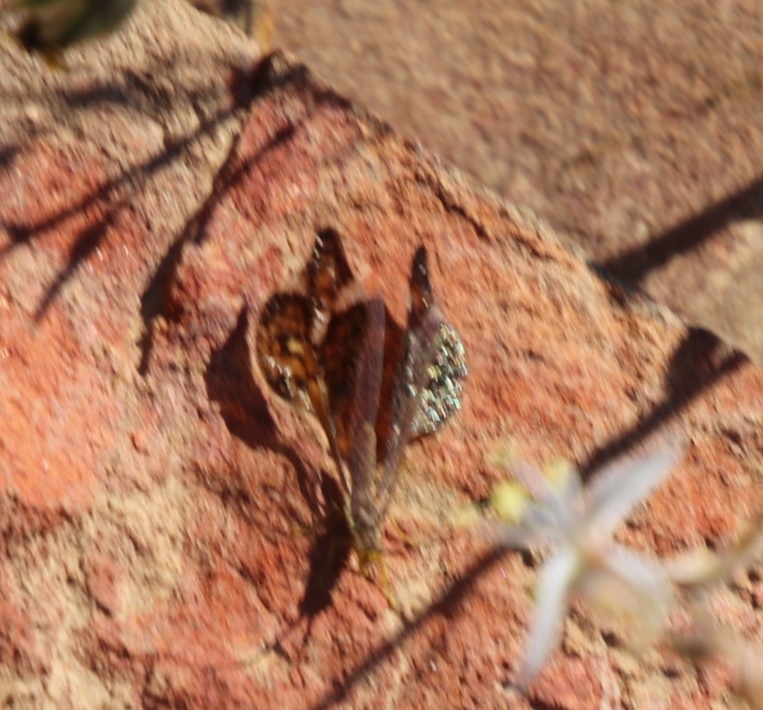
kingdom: Animalia
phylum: Arthropoda
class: Insecta
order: Neuroptera
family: Nemopteridae
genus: Palmipenna
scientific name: Palmipenna aeoleoptera
